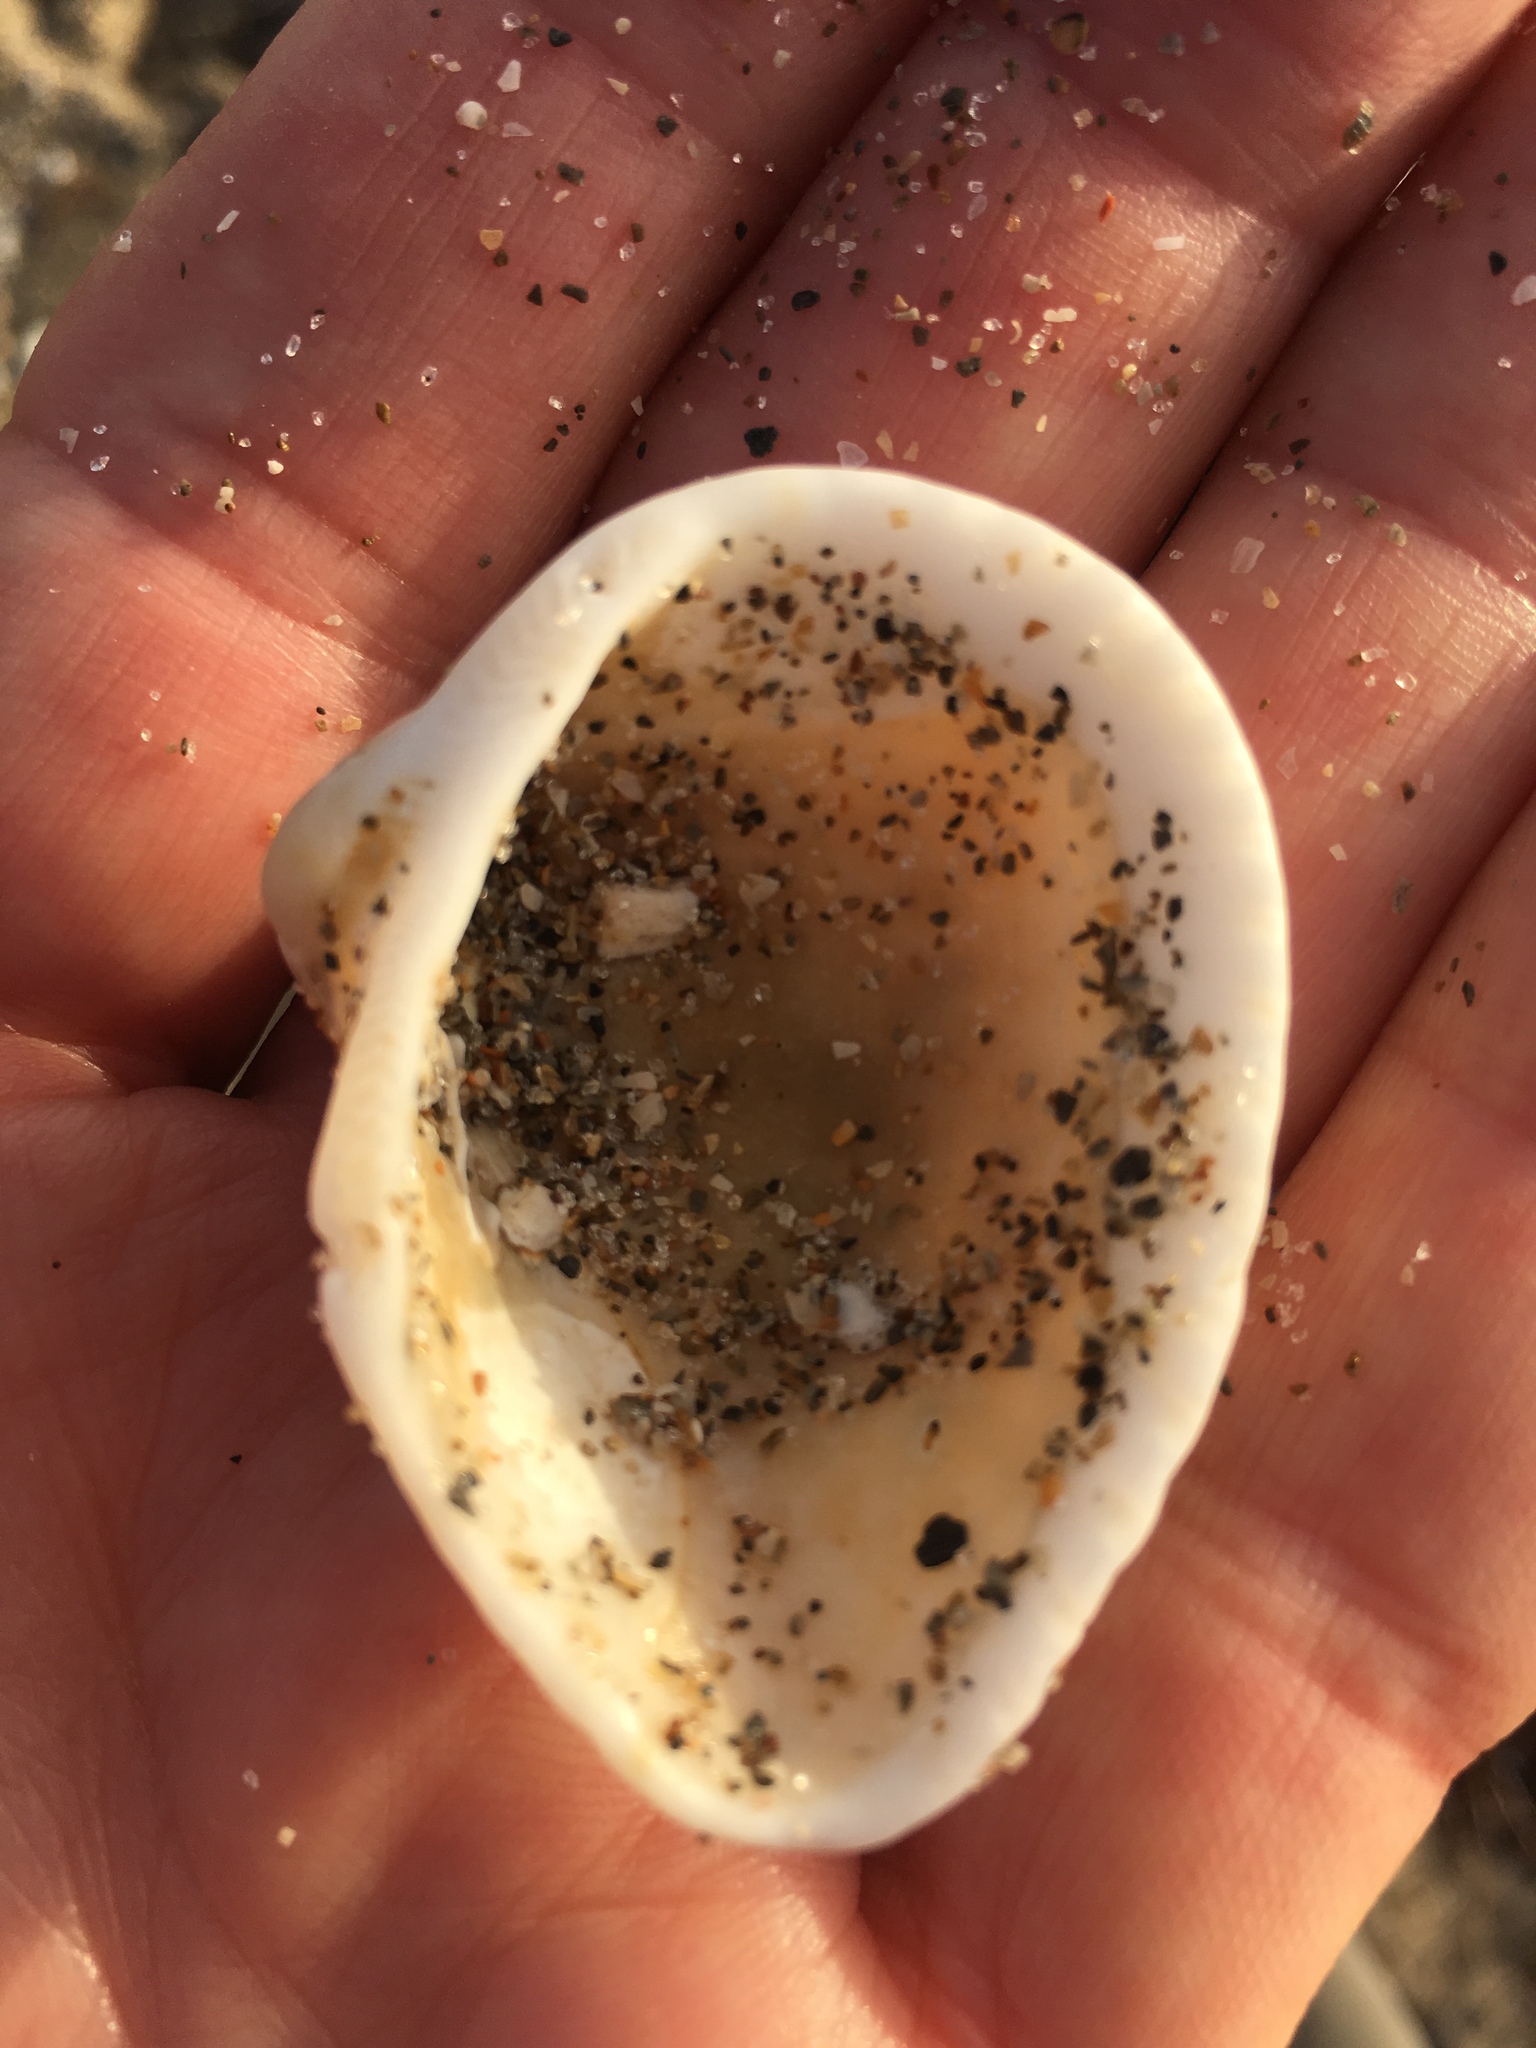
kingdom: Animalia
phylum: Mollusca
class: Bivalvia
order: Arcida
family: Noetiidae
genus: Noetia
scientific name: Noetia ponderosa
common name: Ponderous ark
